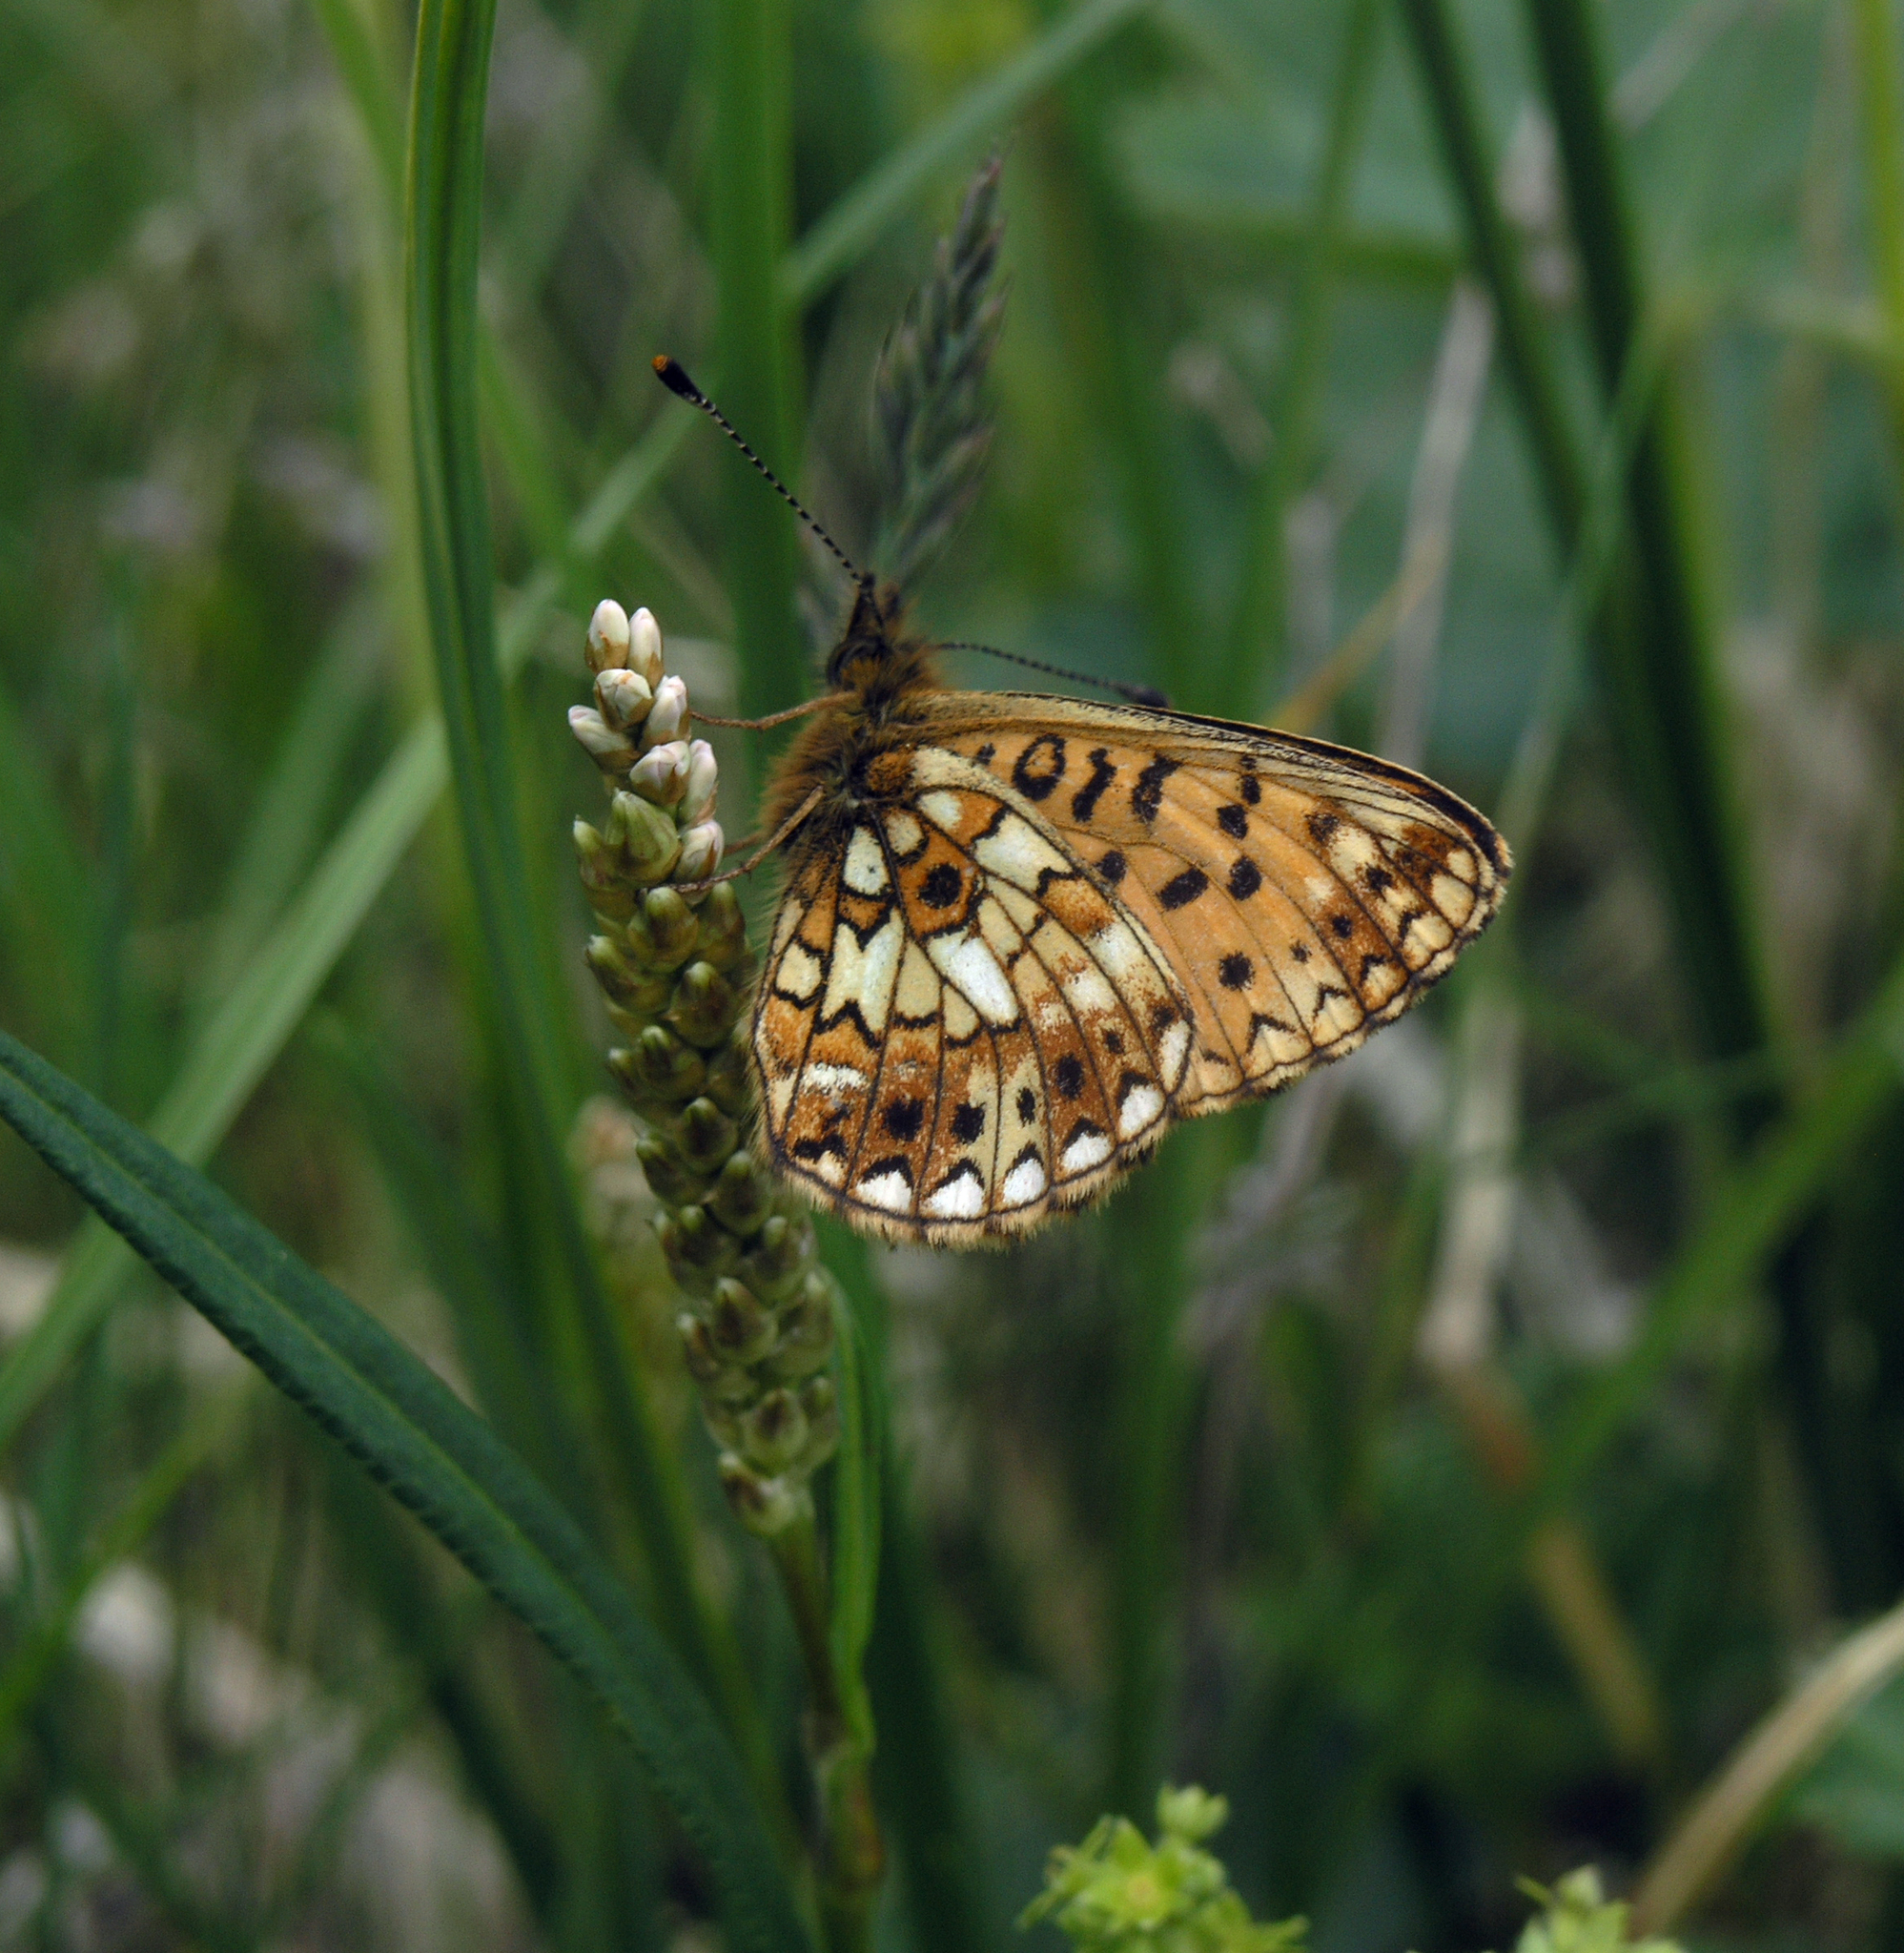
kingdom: Animalia
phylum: Arthropoda
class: Insecta
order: Lepidoptera
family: Nymphalidae
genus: Boloria
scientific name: Boloria selene
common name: Small pearl-bordered fritillary
